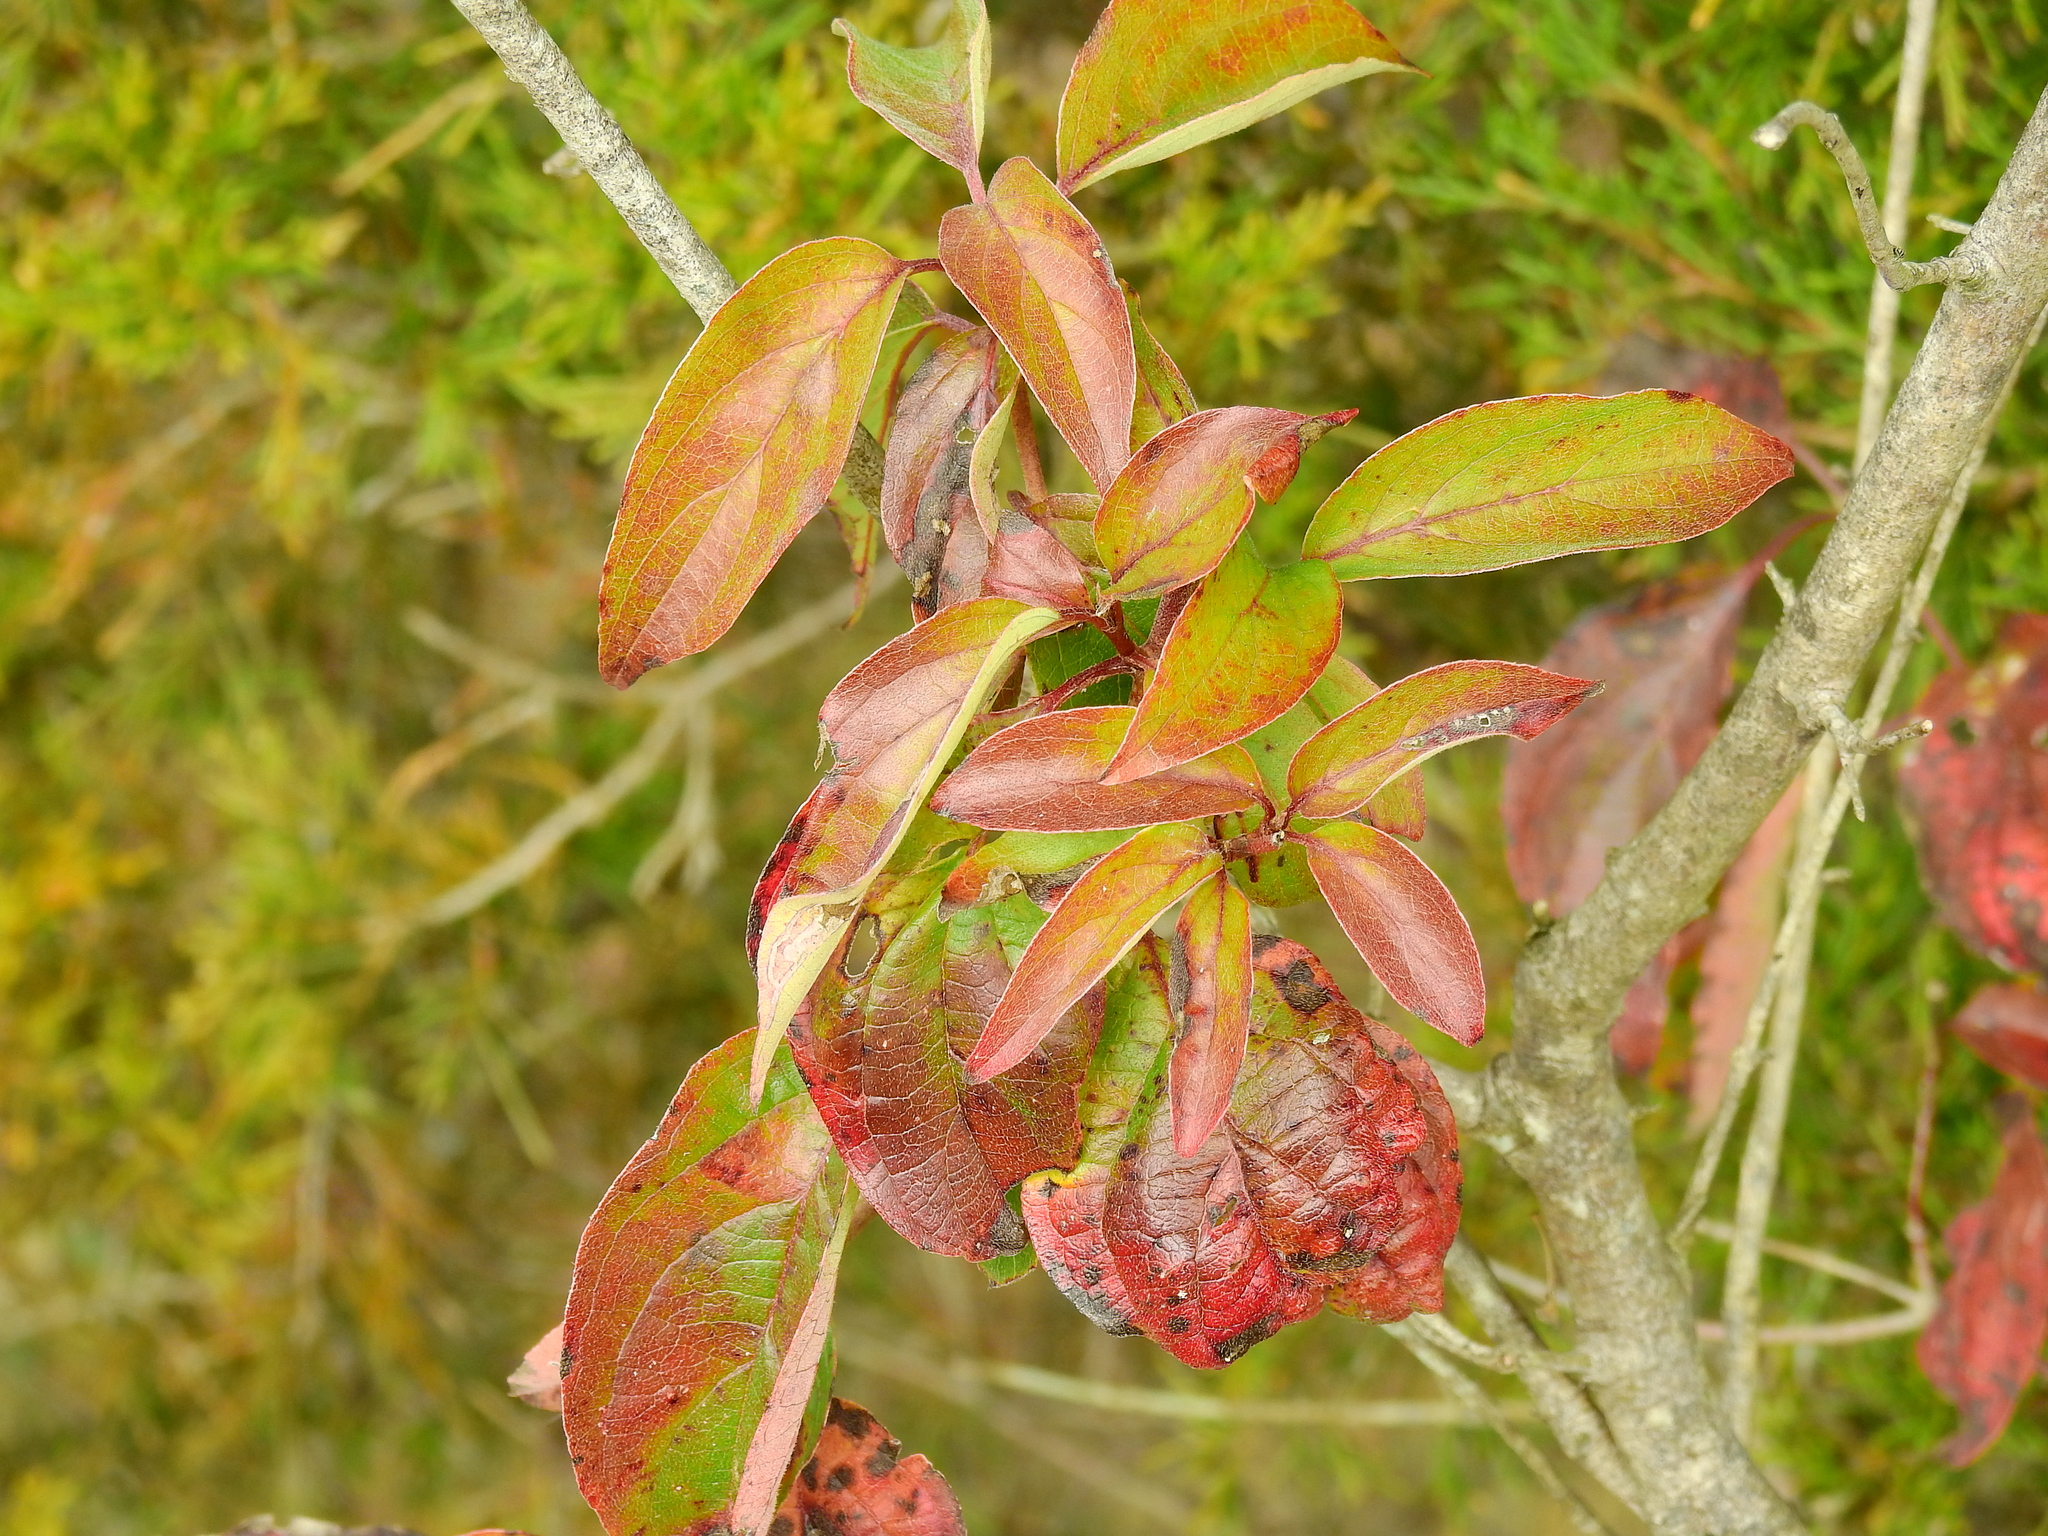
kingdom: Plantae
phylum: Tracheophyta
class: Magnoliopsida
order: Rosales
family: Rosaceae
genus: Pyrus
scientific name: Pyrus calleryana
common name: Callery pear
